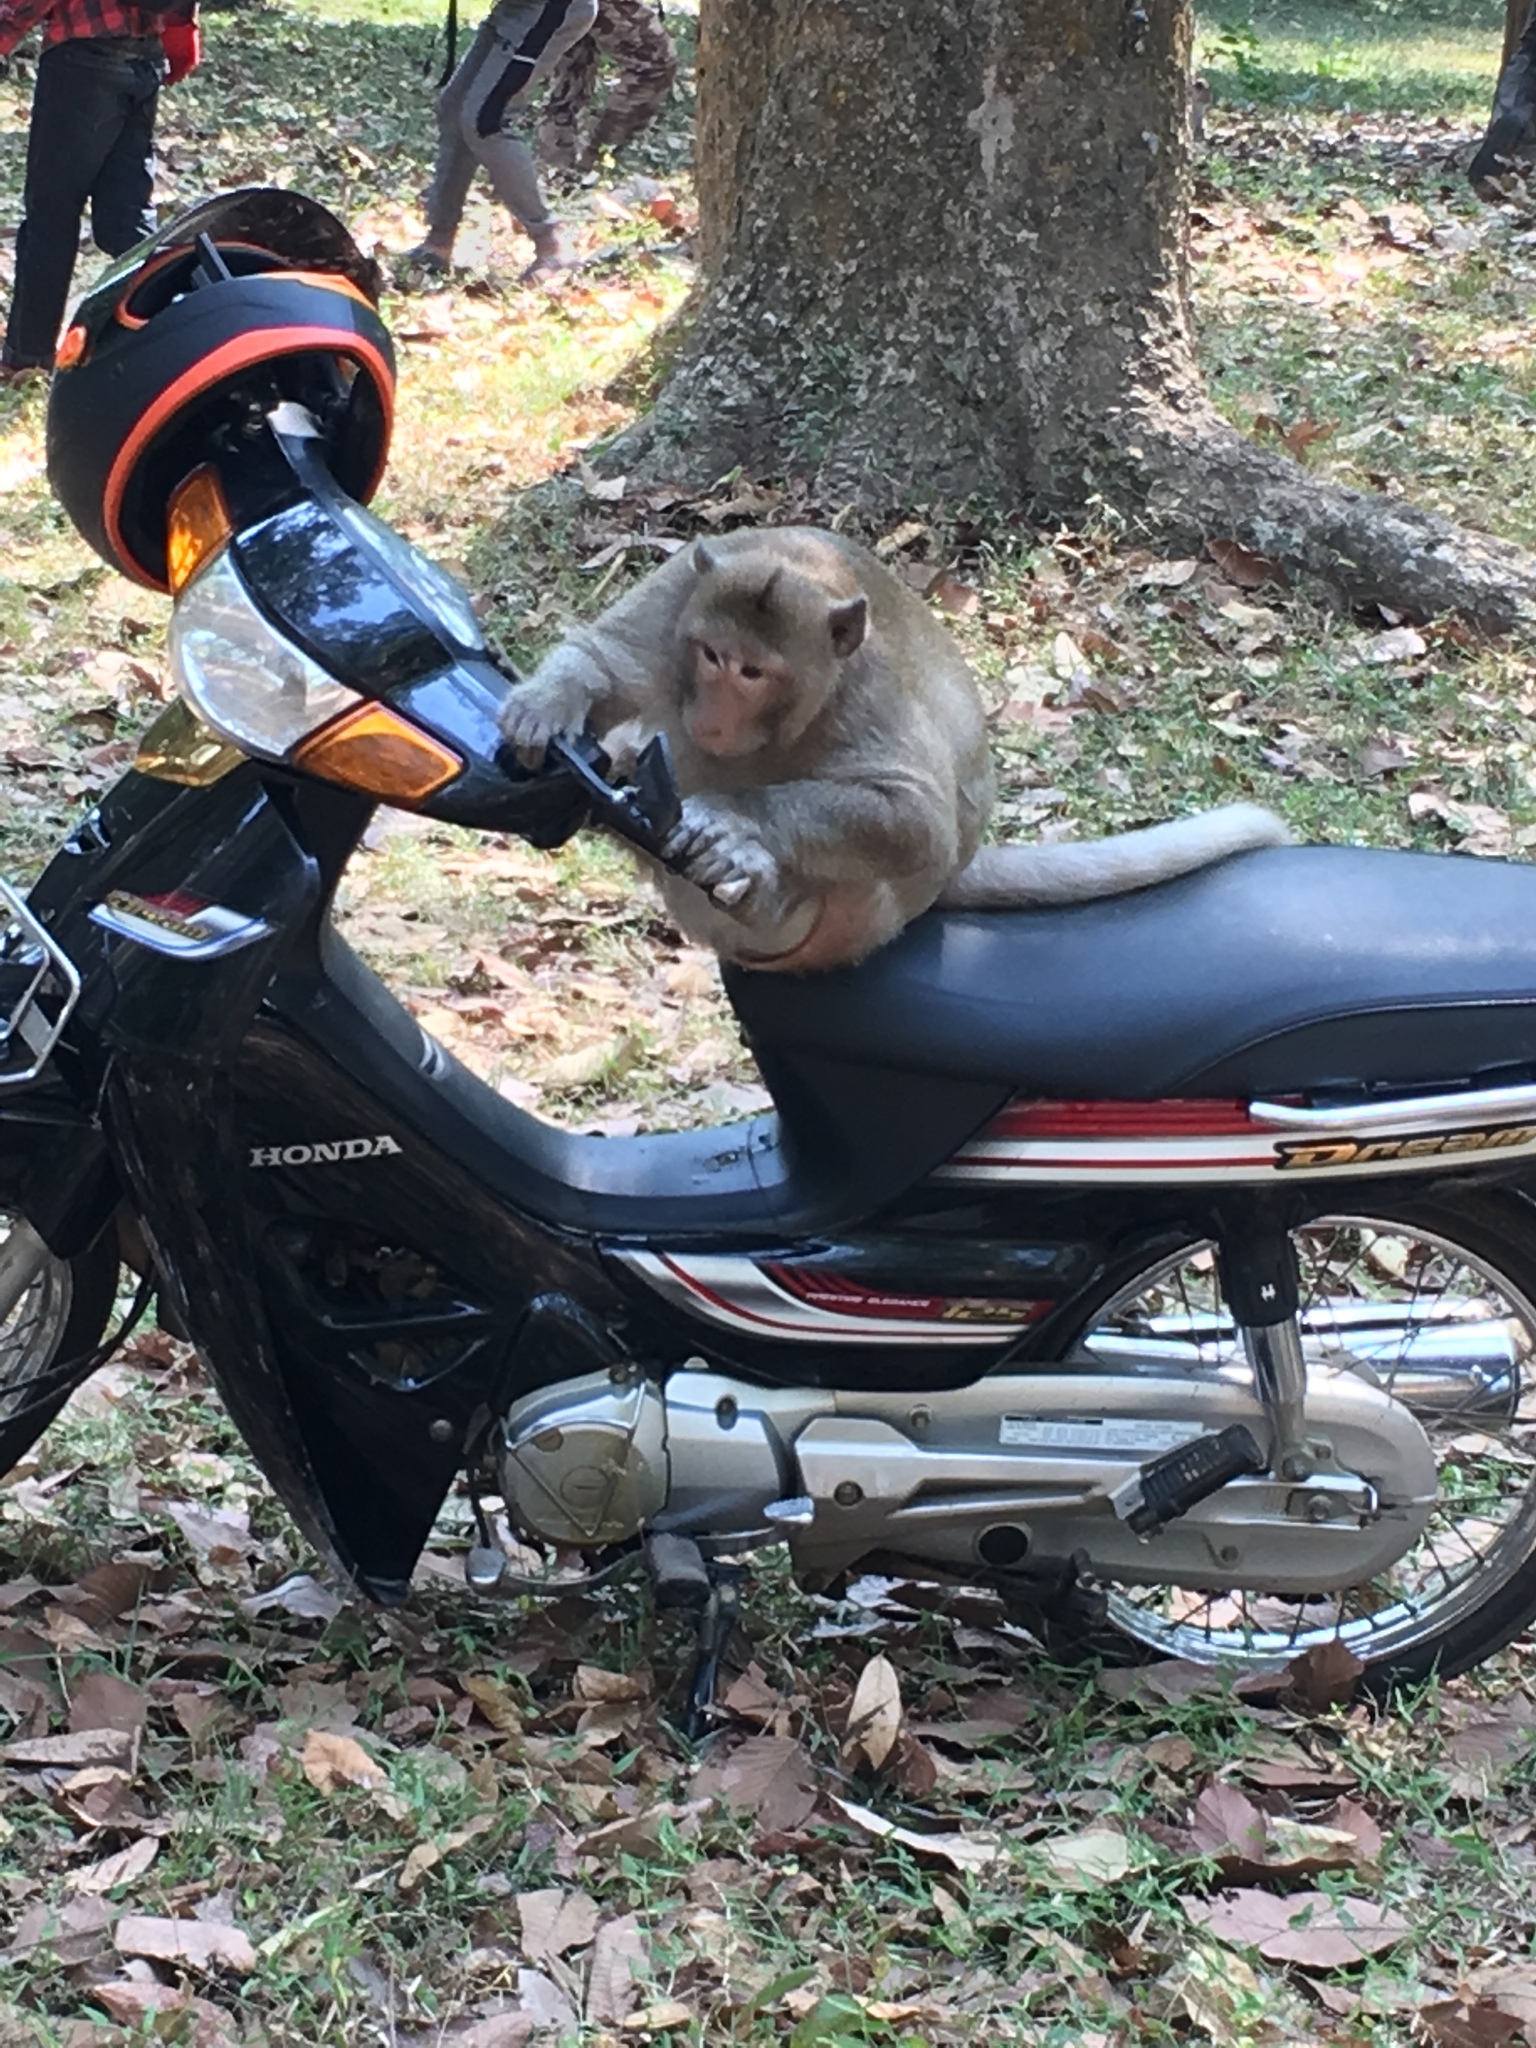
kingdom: Animalia
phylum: Chordata
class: Mammalia
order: Primates
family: Cercopithecidae
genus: Macaca
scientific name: Macaca fascicularis
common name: Crab-eating macaque
